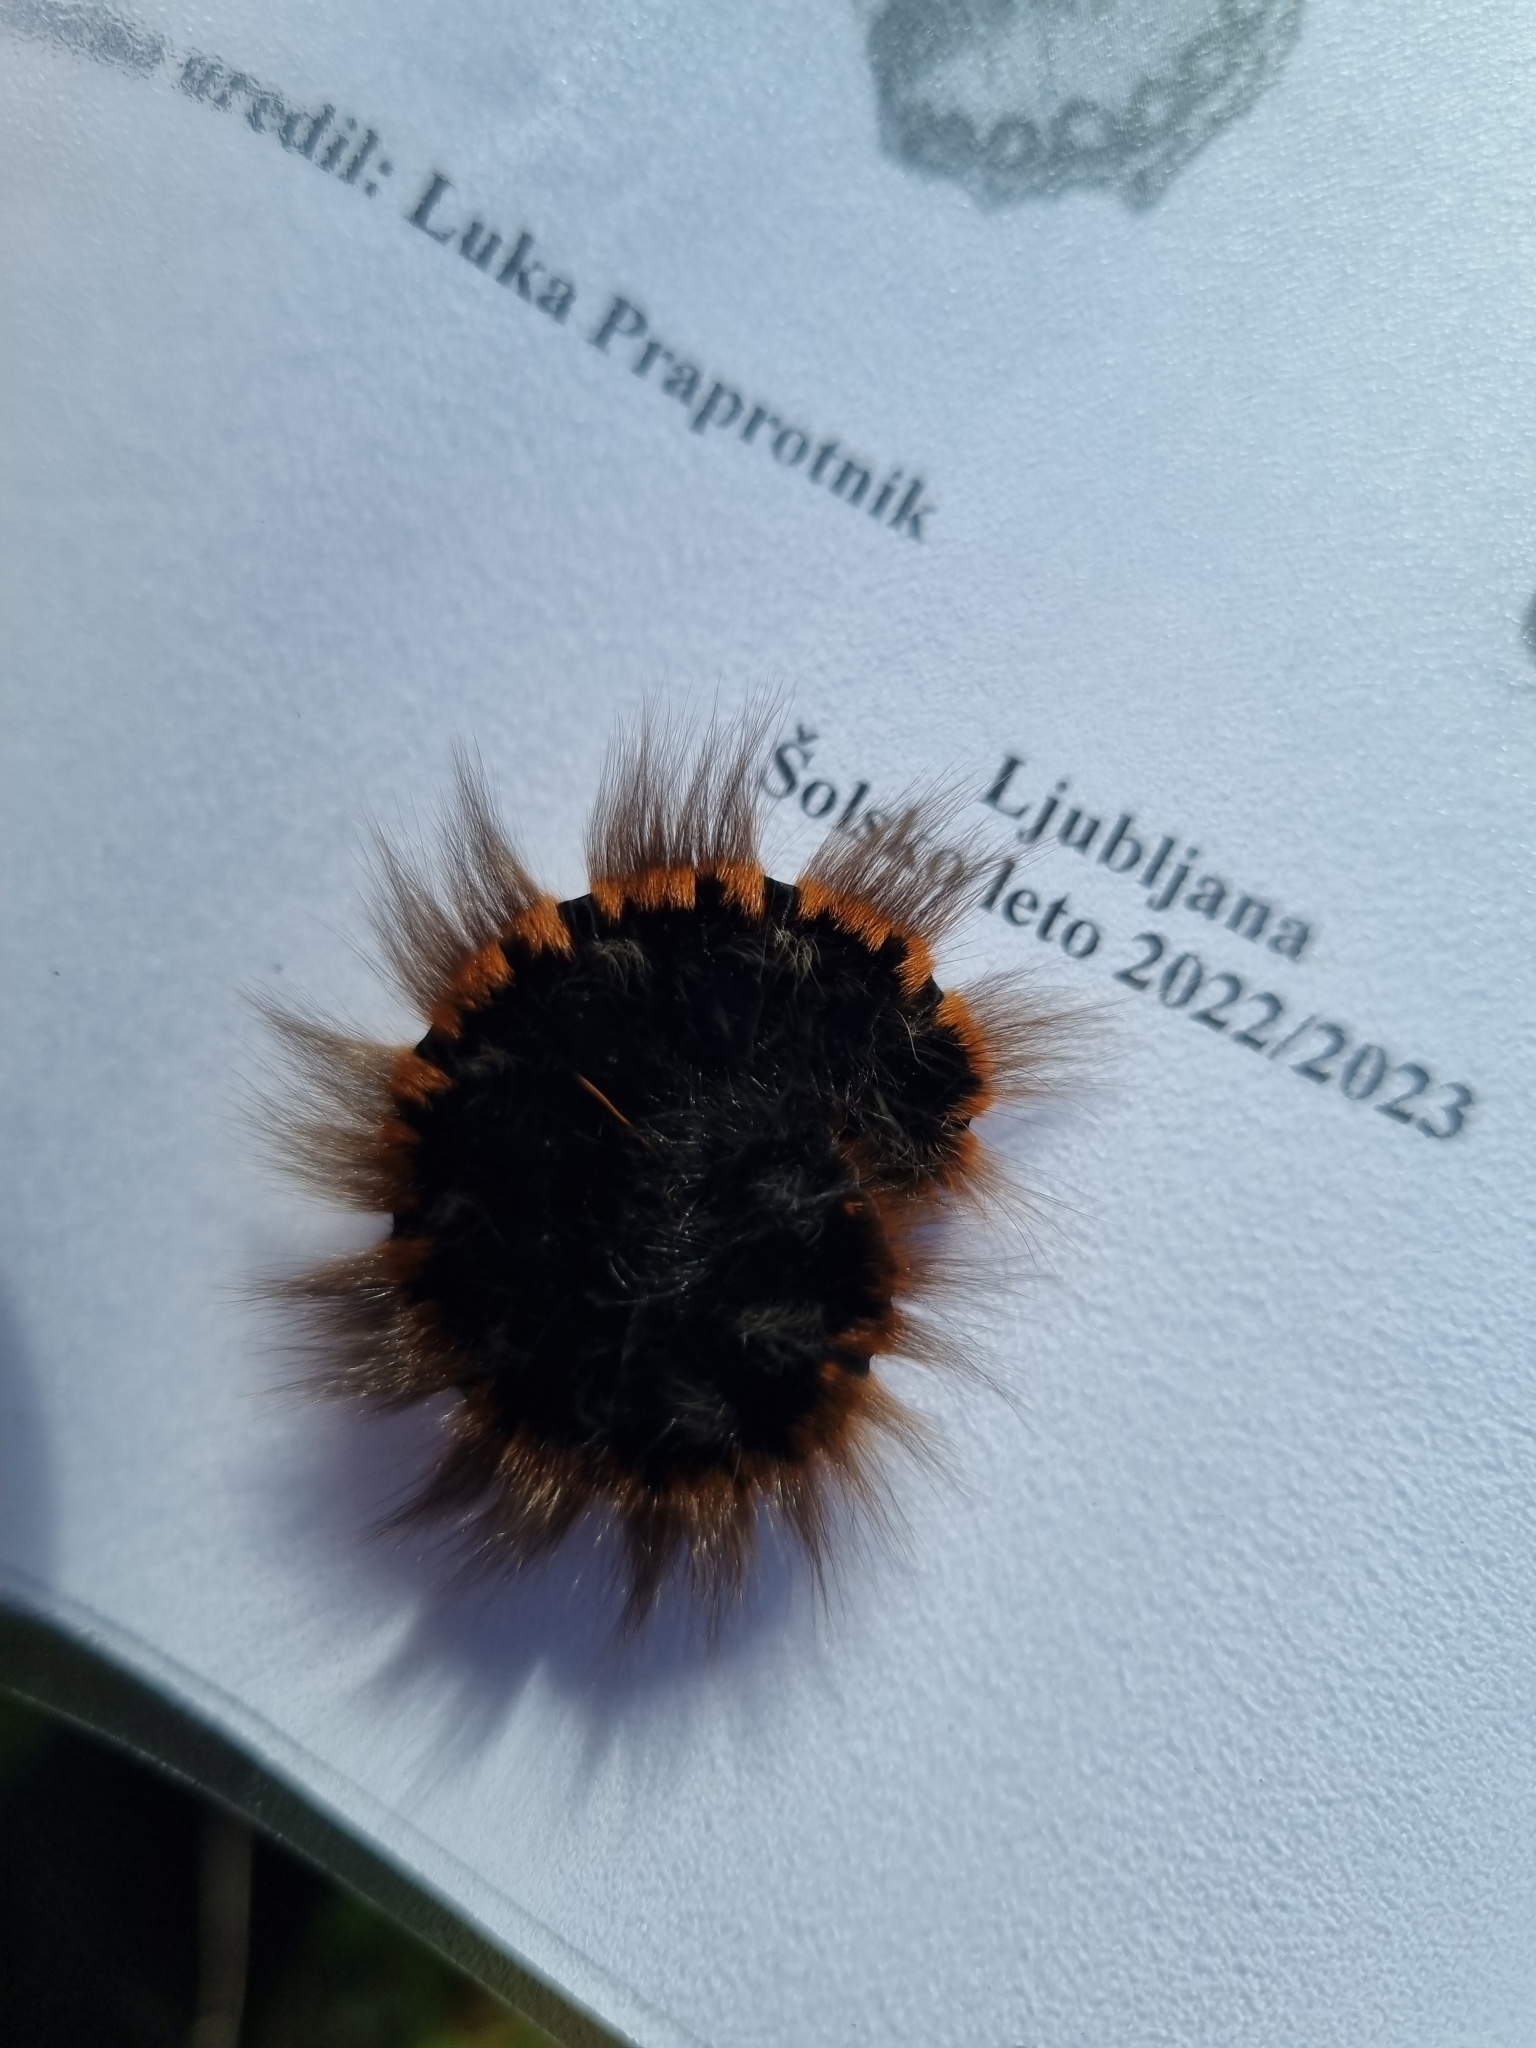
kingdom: Animalia
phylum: Arthropoda
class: Insecta
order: Lepidoptera
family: Lasiocampidae
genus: Macrothylacia
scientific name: Macrothylacia rubi
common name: Fox moth
